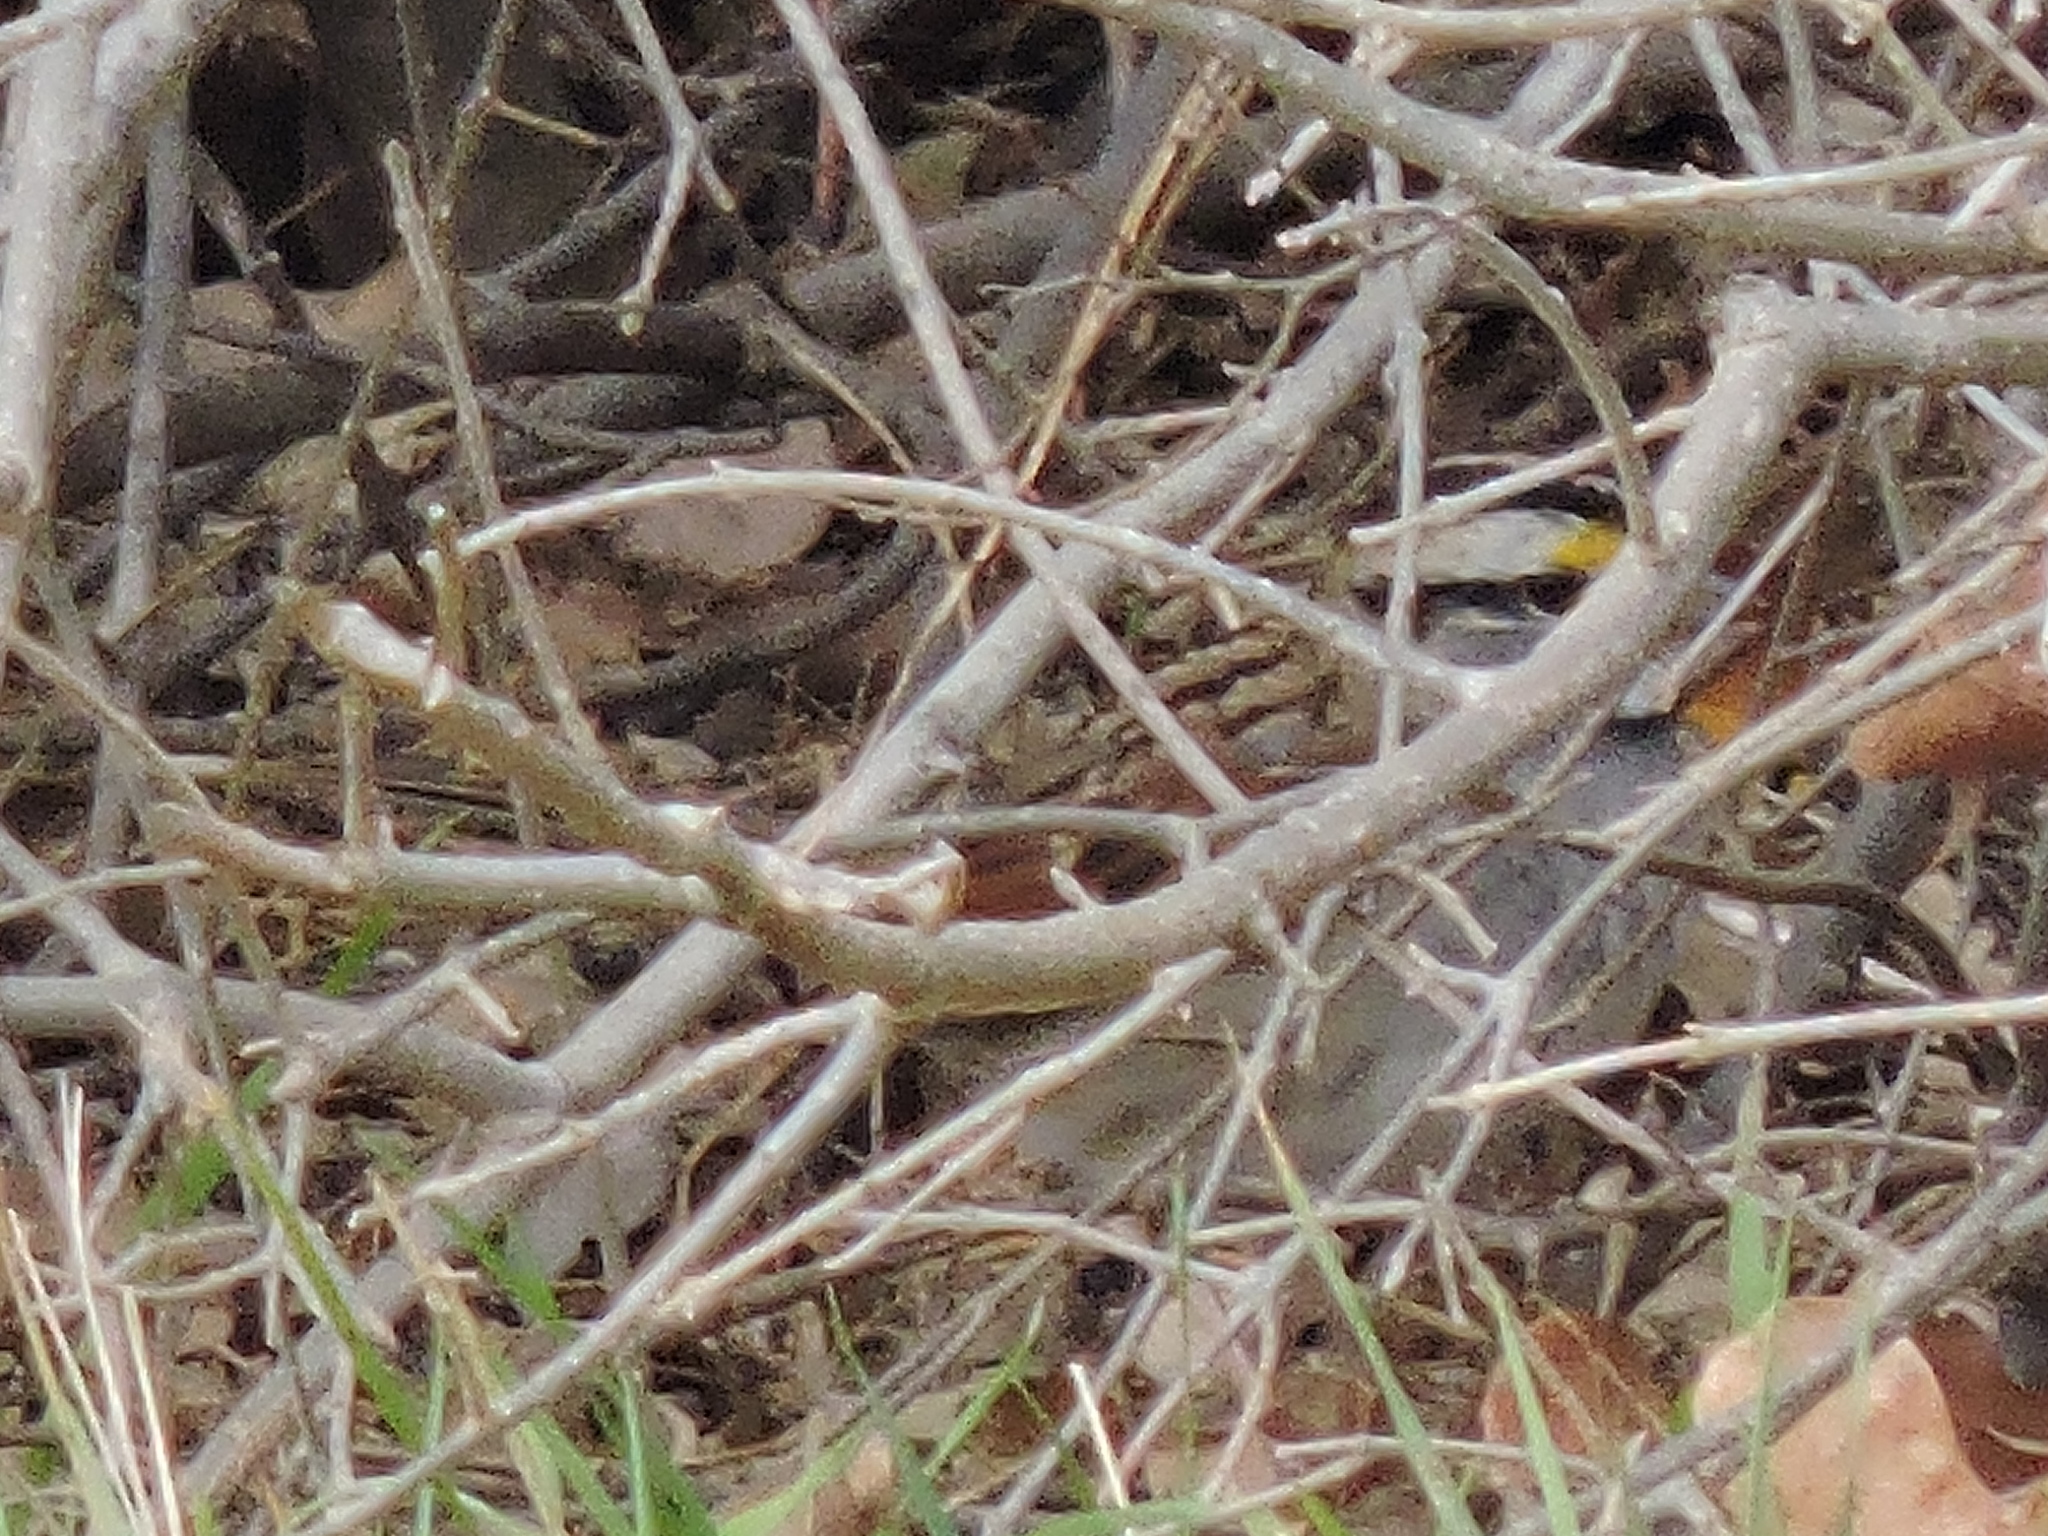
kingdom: Animalia
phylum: Chordata
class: Aves
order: Passeriformes
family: Passerellidae
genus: Zonotrichia
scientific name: Zonotrichia albicollis
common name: White-throated sparrow
